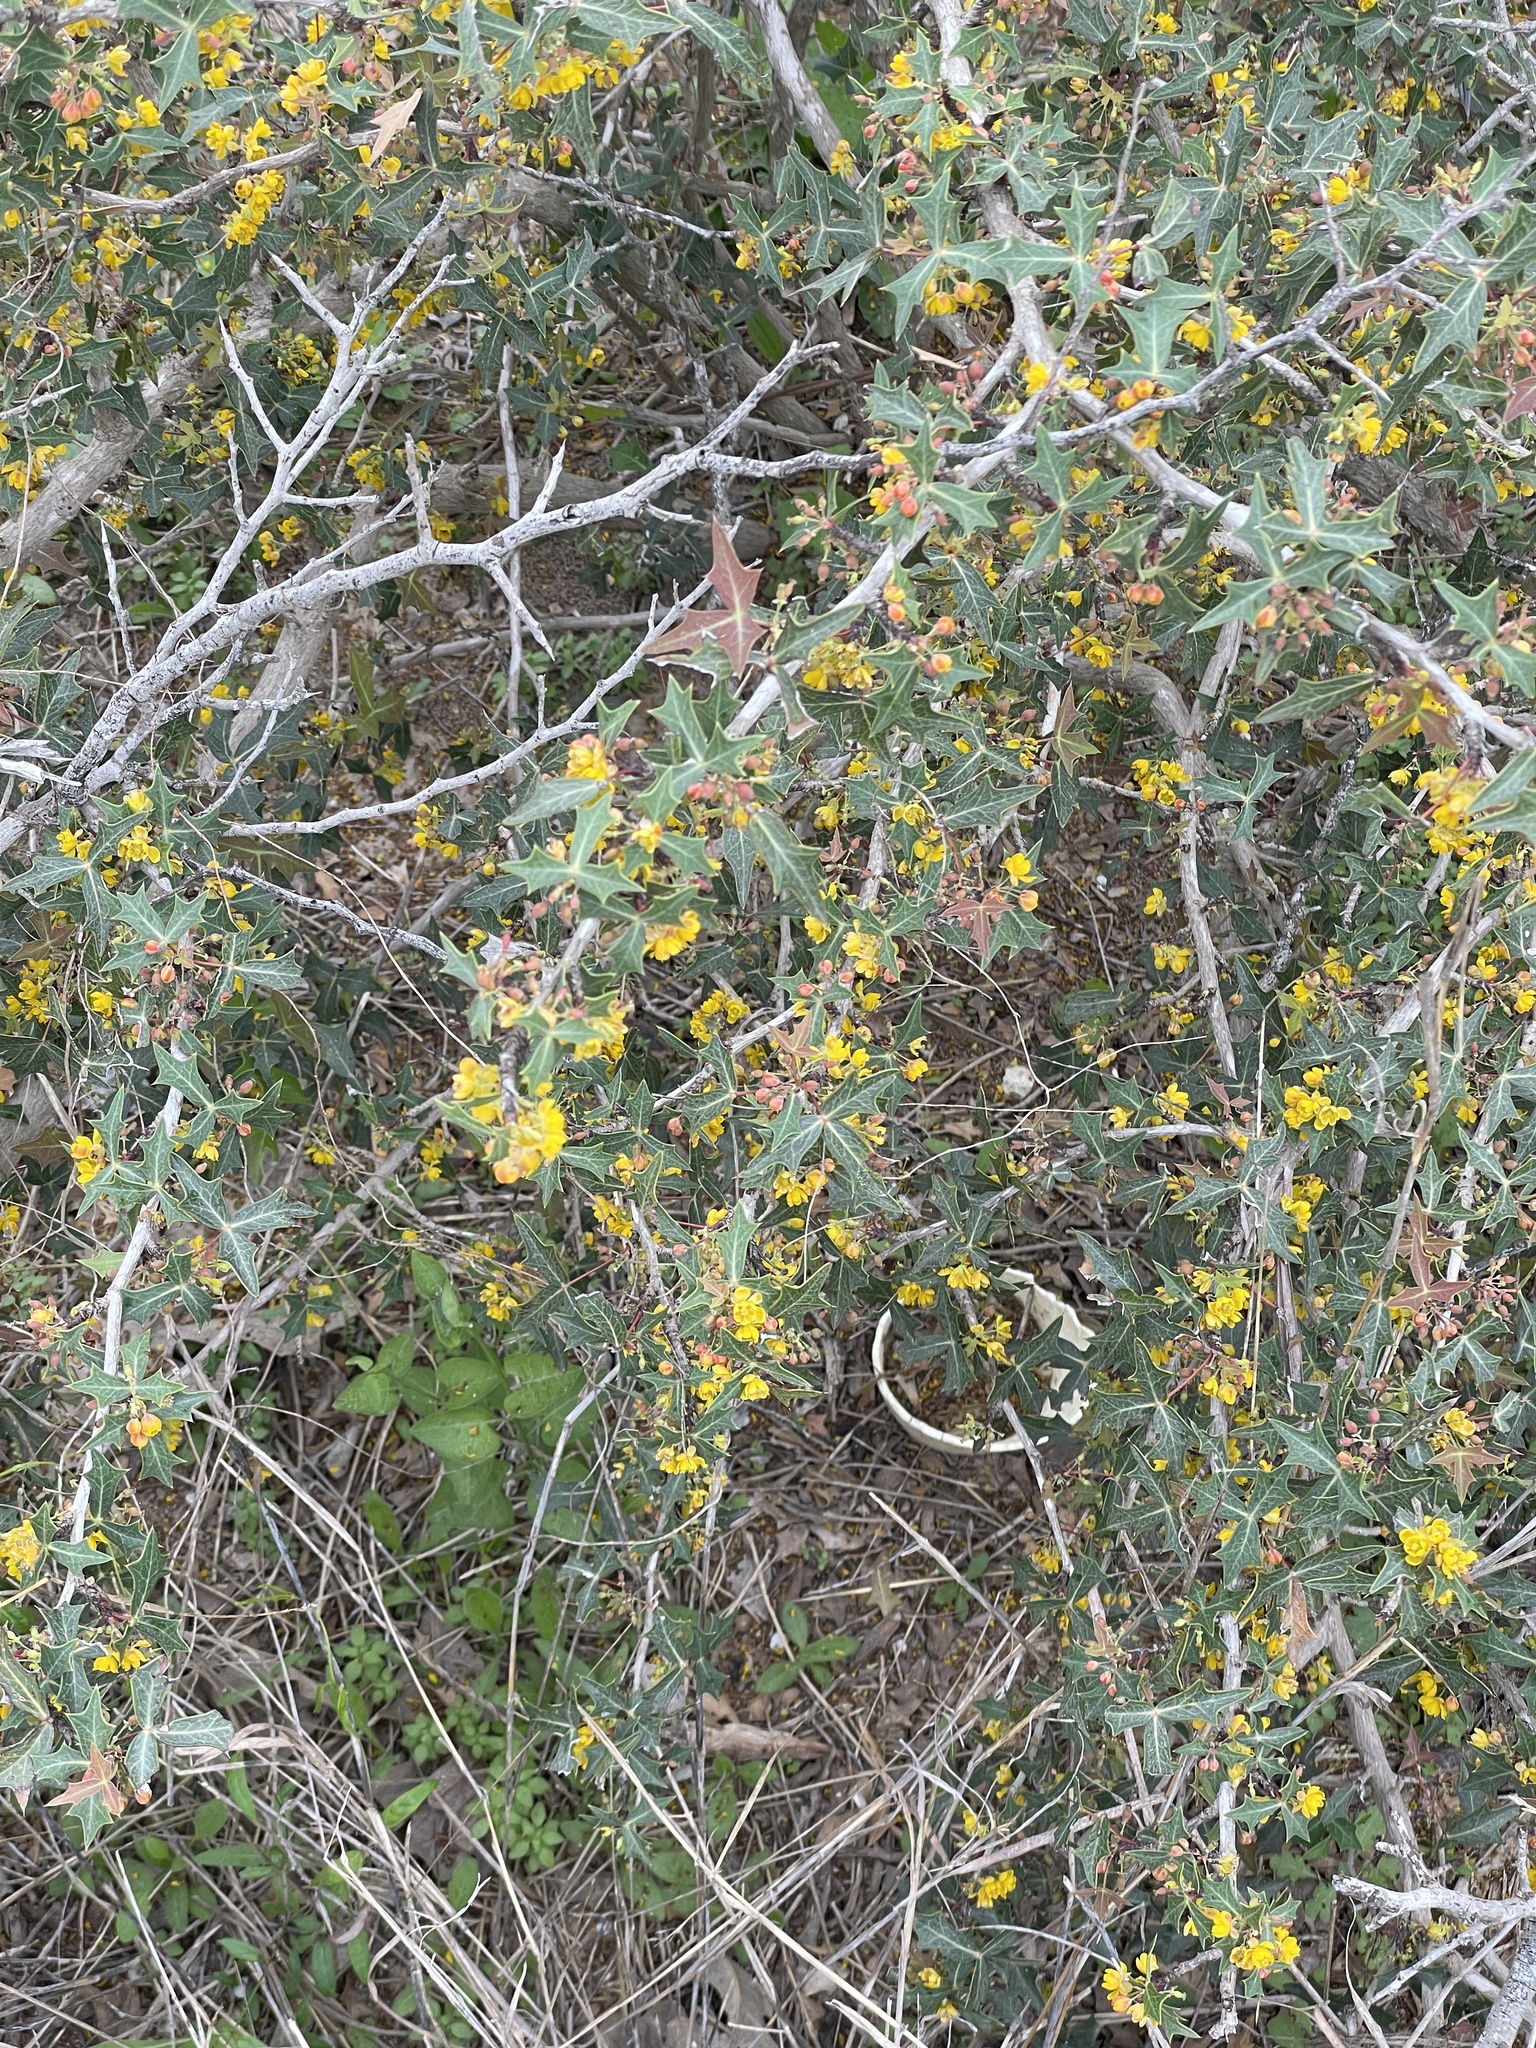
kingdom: Plantae
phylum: Tracheophyta
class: Magnoliopsida
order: Ranunculales
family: Berberidaceae
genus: Alloberberis
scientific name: Alloberberis trifoliolata
